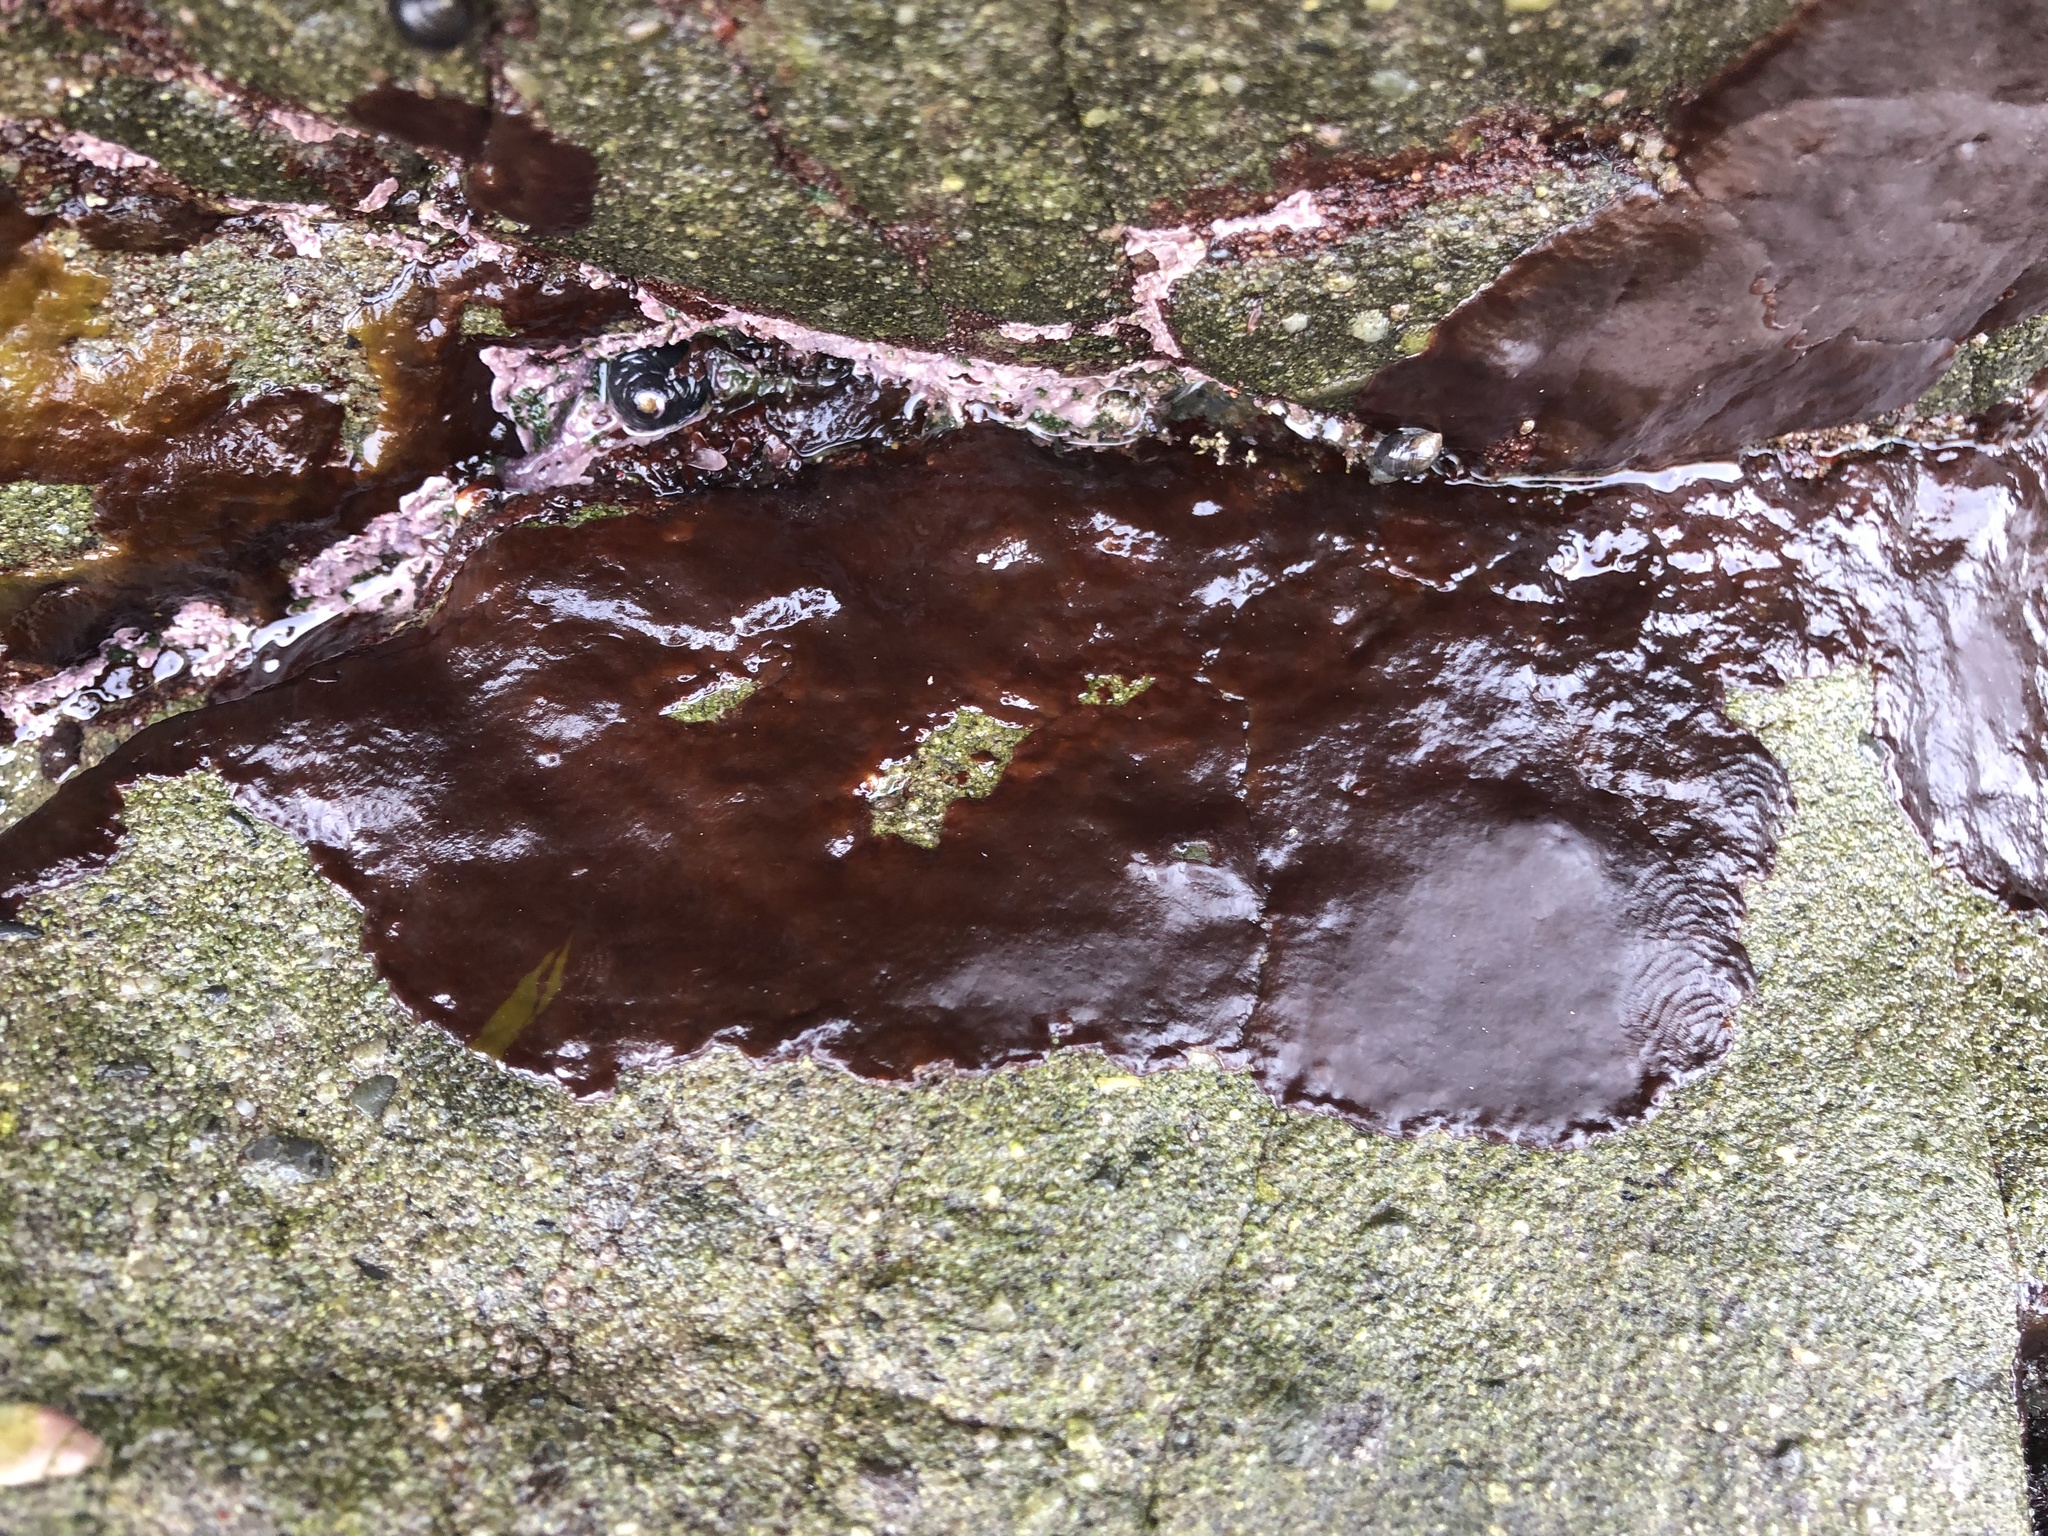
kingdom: Plantae
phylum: Rhodophyta
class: Florideophyceae
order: Gigartinales
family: Phyllophoraceae
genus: Mastocarpus
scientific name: Mastocarpus papillatus
